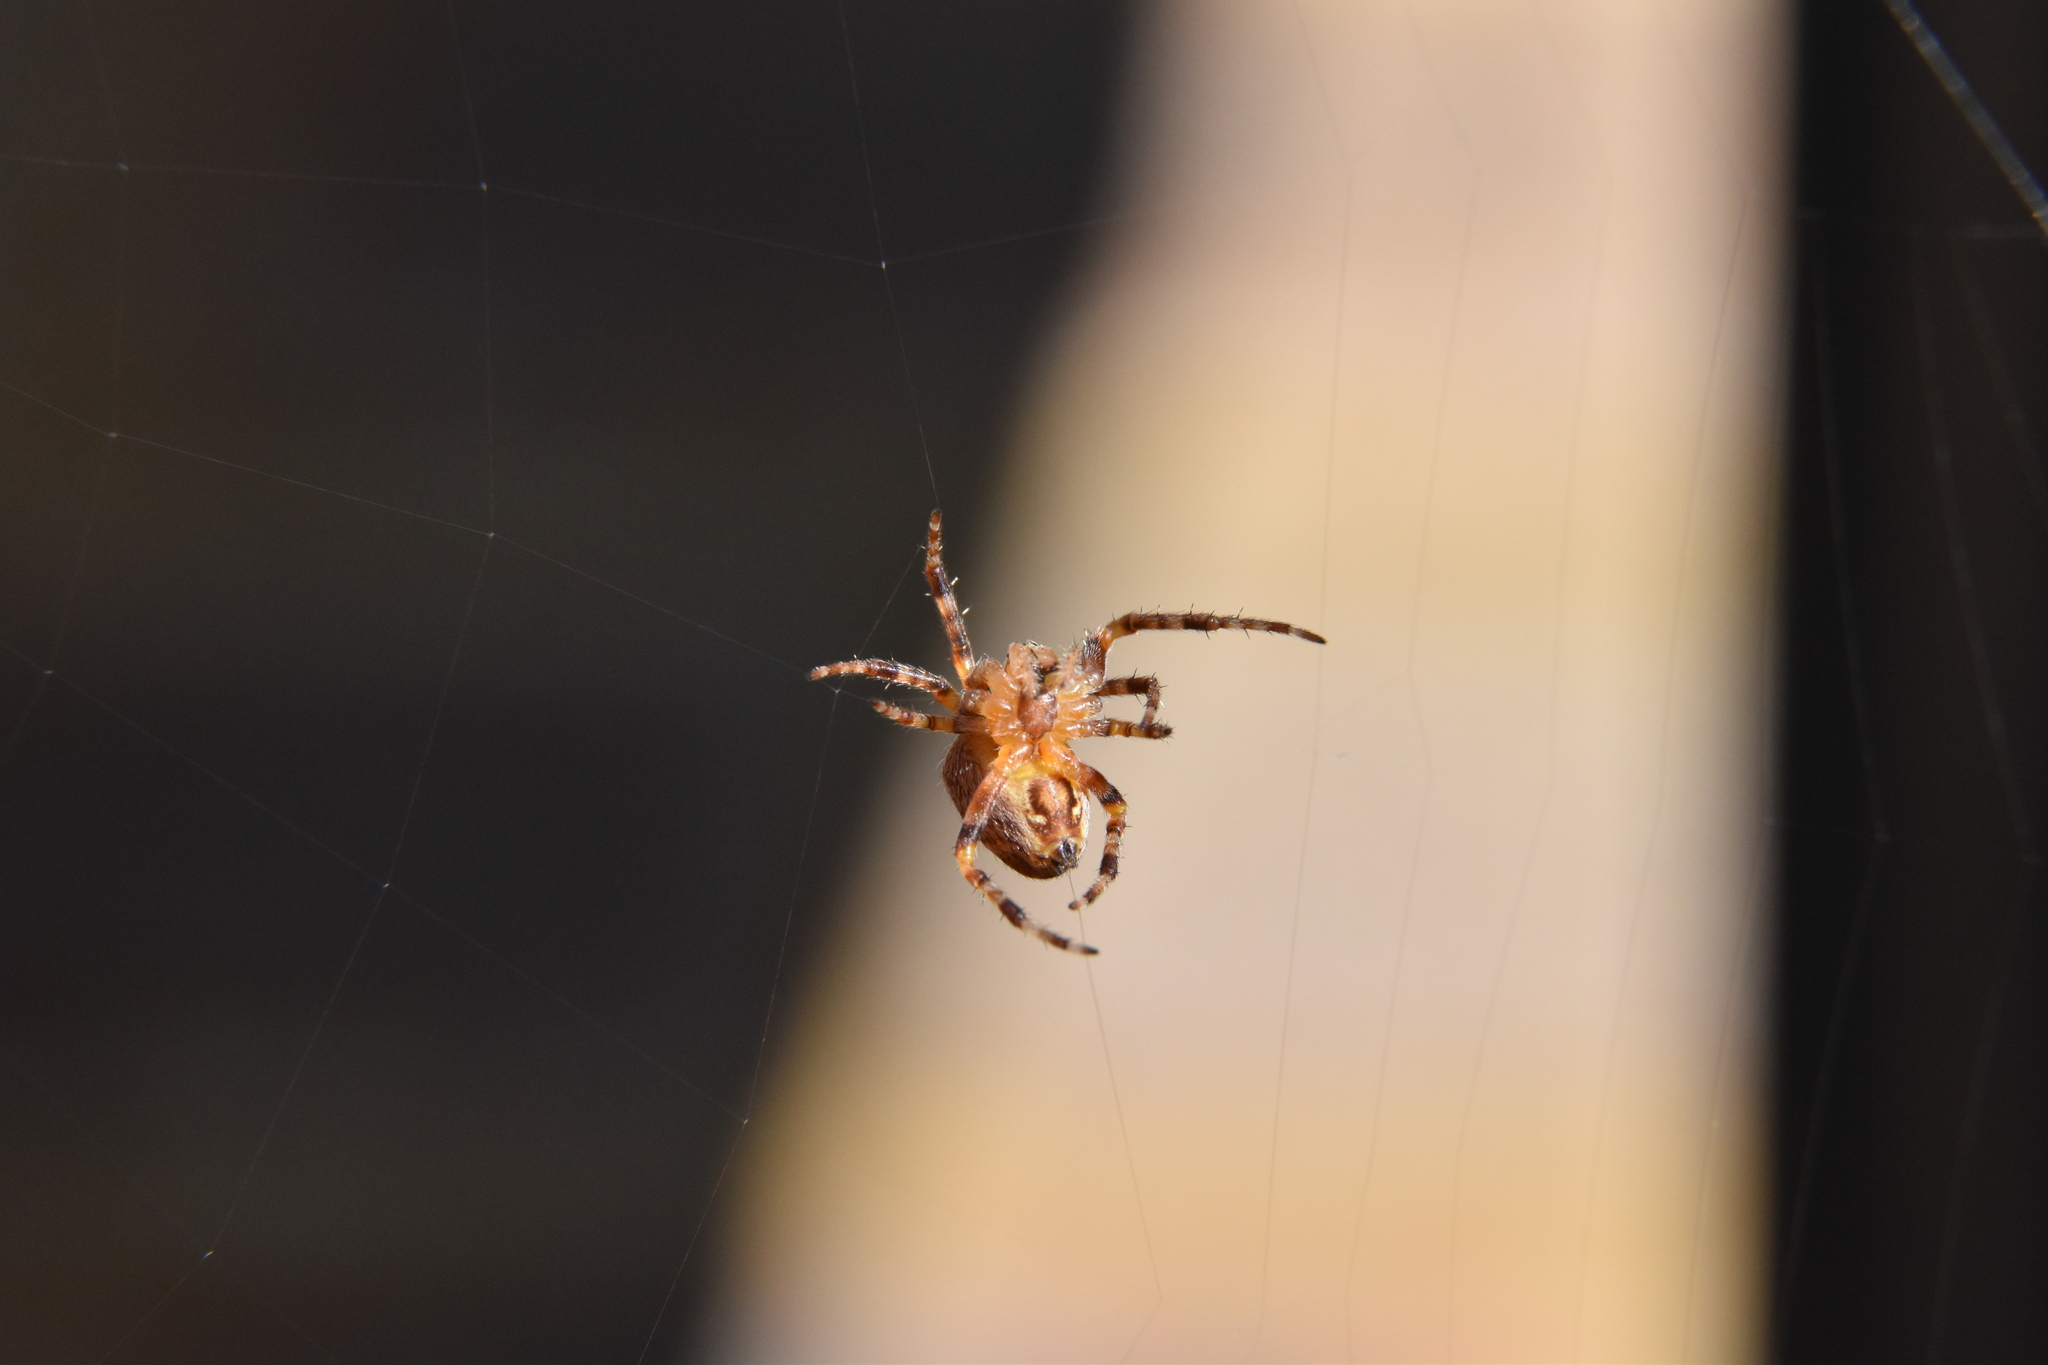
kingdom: Animalia
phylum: Arthropoda
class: Arachnida
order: Araneae
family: Araneidae
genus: Araneus
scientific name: Araneus diadematus
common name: Cross orbweaver
